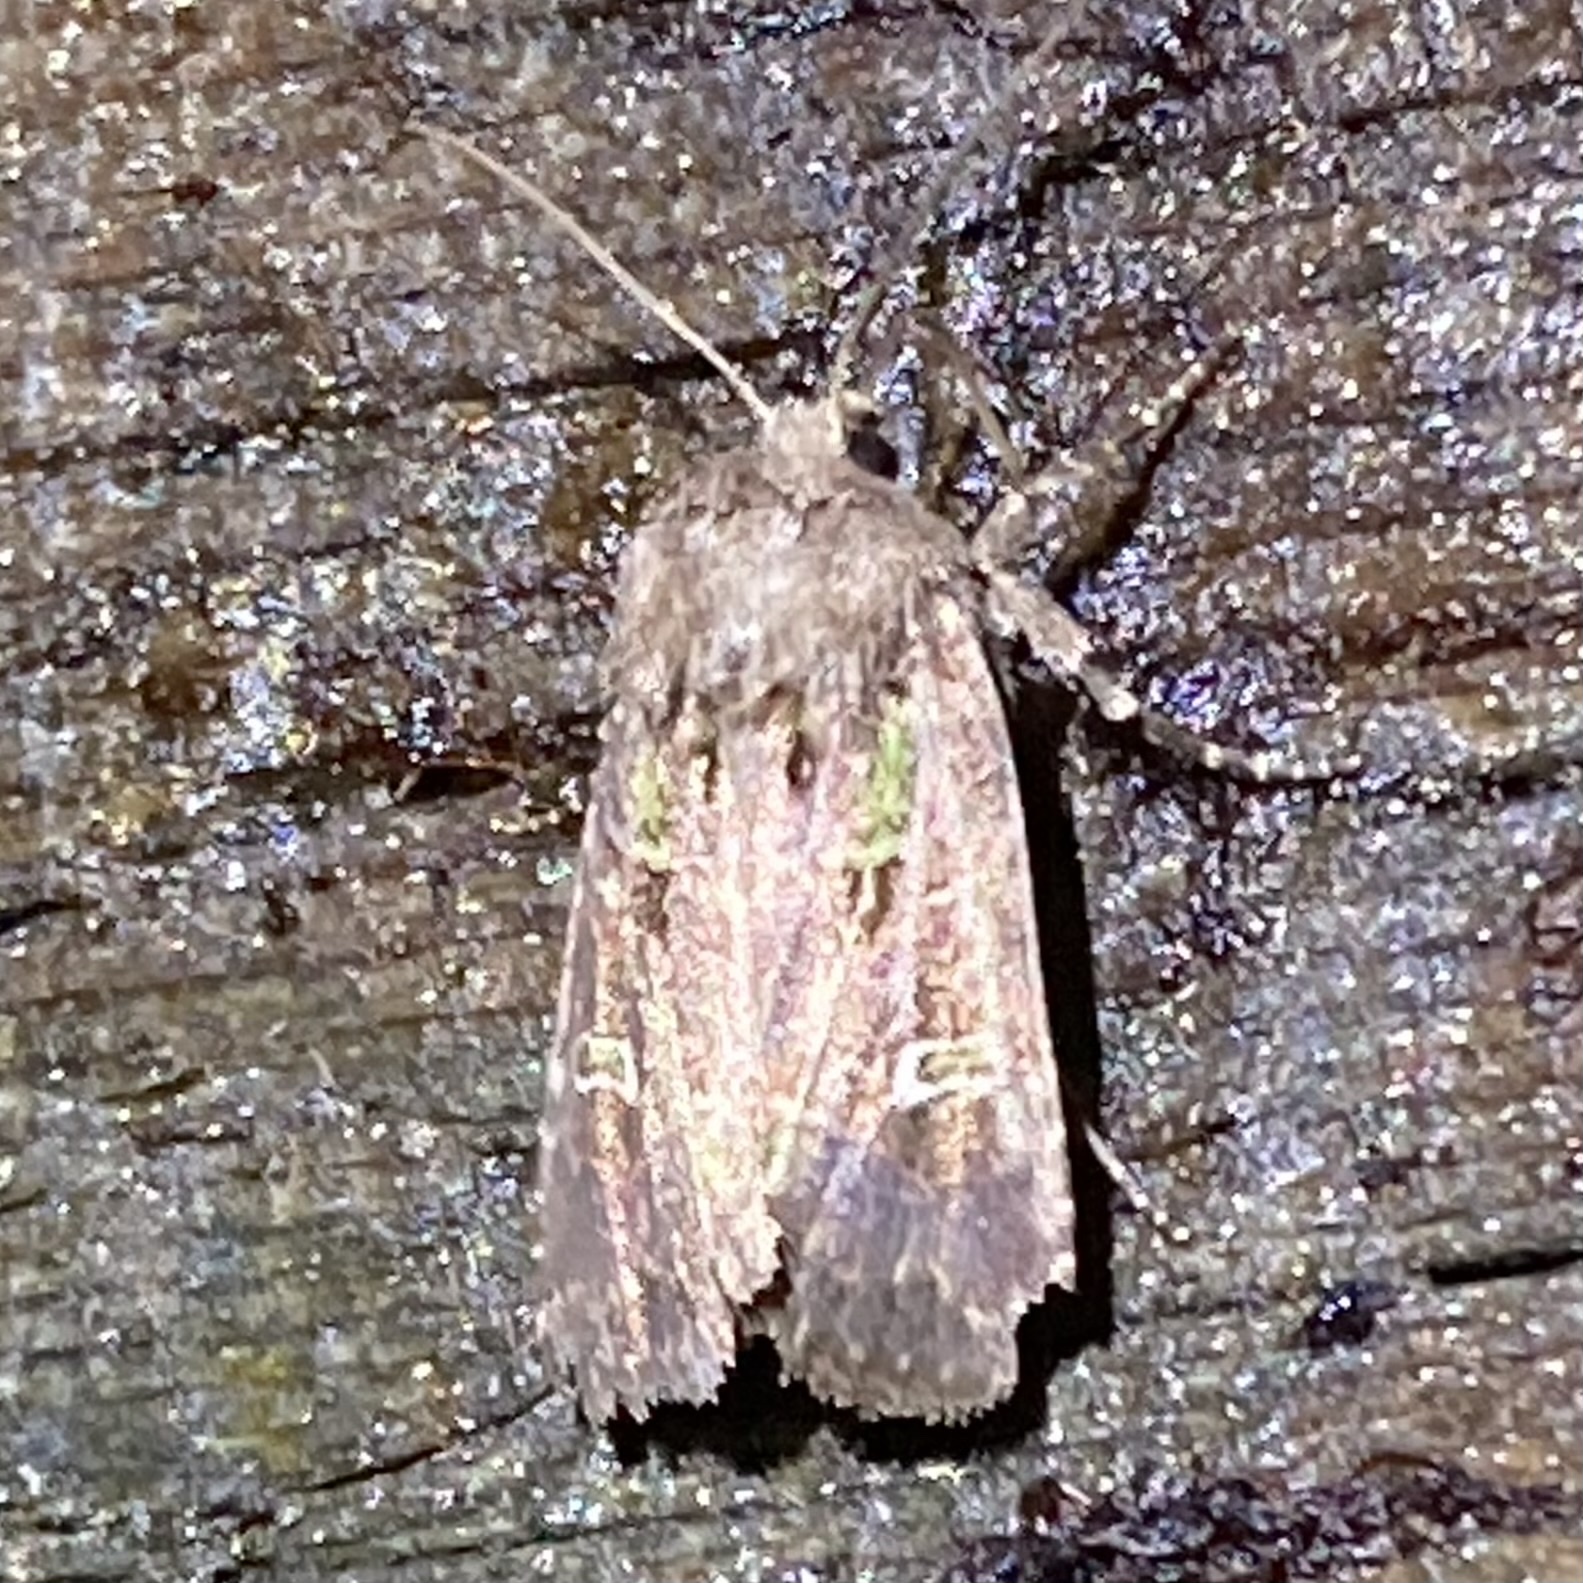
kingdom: Animalia
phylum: Arthropoda
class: Insecta
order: Lepidoptera
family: Noctuidae
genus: Lacinipolia
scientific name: Lacinipolia renigera
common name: Kidney-spotted minor
